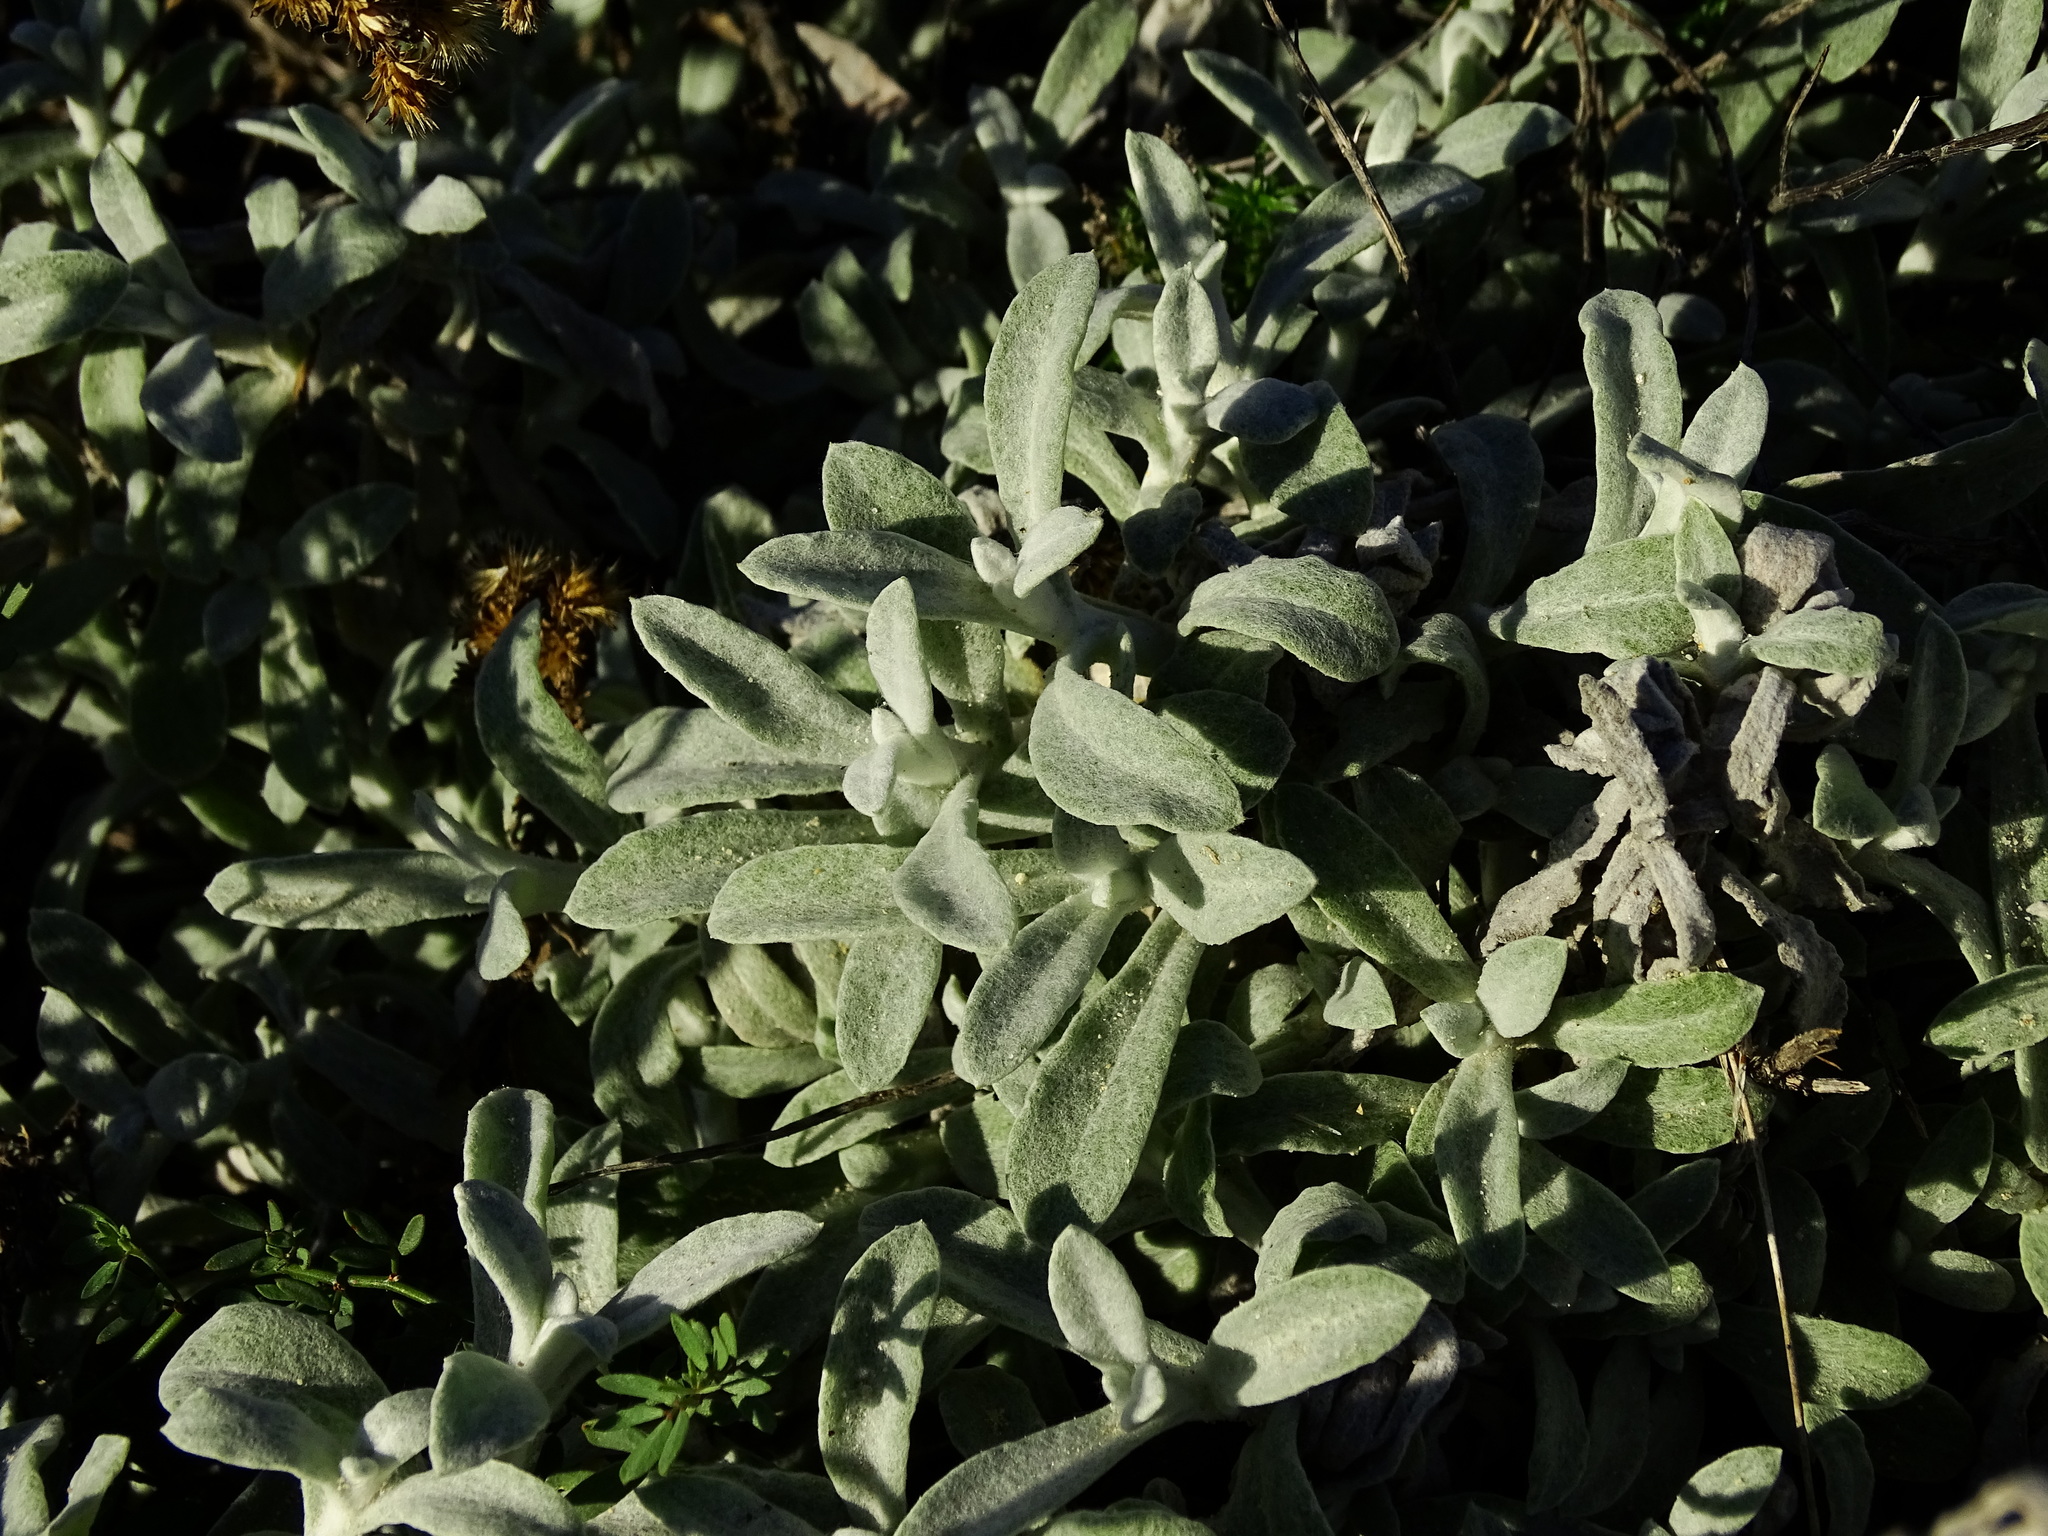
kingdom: Plantae
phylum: Tracheophyta
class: Magnoliopsida
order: Asterales
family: Asteraceae
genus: Pseudognaphalium
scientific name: Pseudognaphalium microcephalum
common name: San diego rabbit-tobacco
